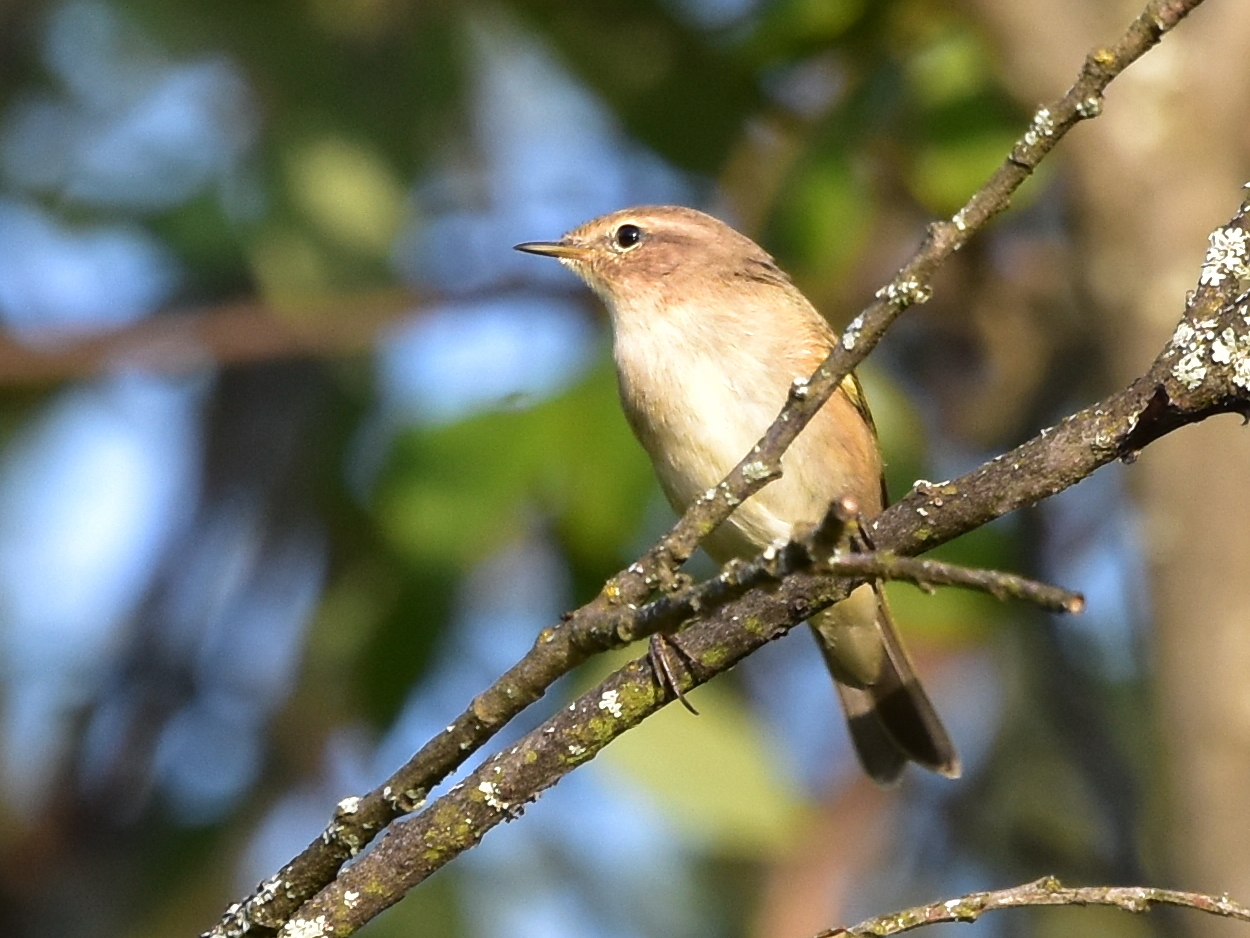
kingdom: Animalia
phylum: Chordata
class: Aves
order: Passeriformes
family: Phylloscopidae
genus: Phylloscopus
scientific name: Phylloscopus collybita
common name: Common chiffchaff
